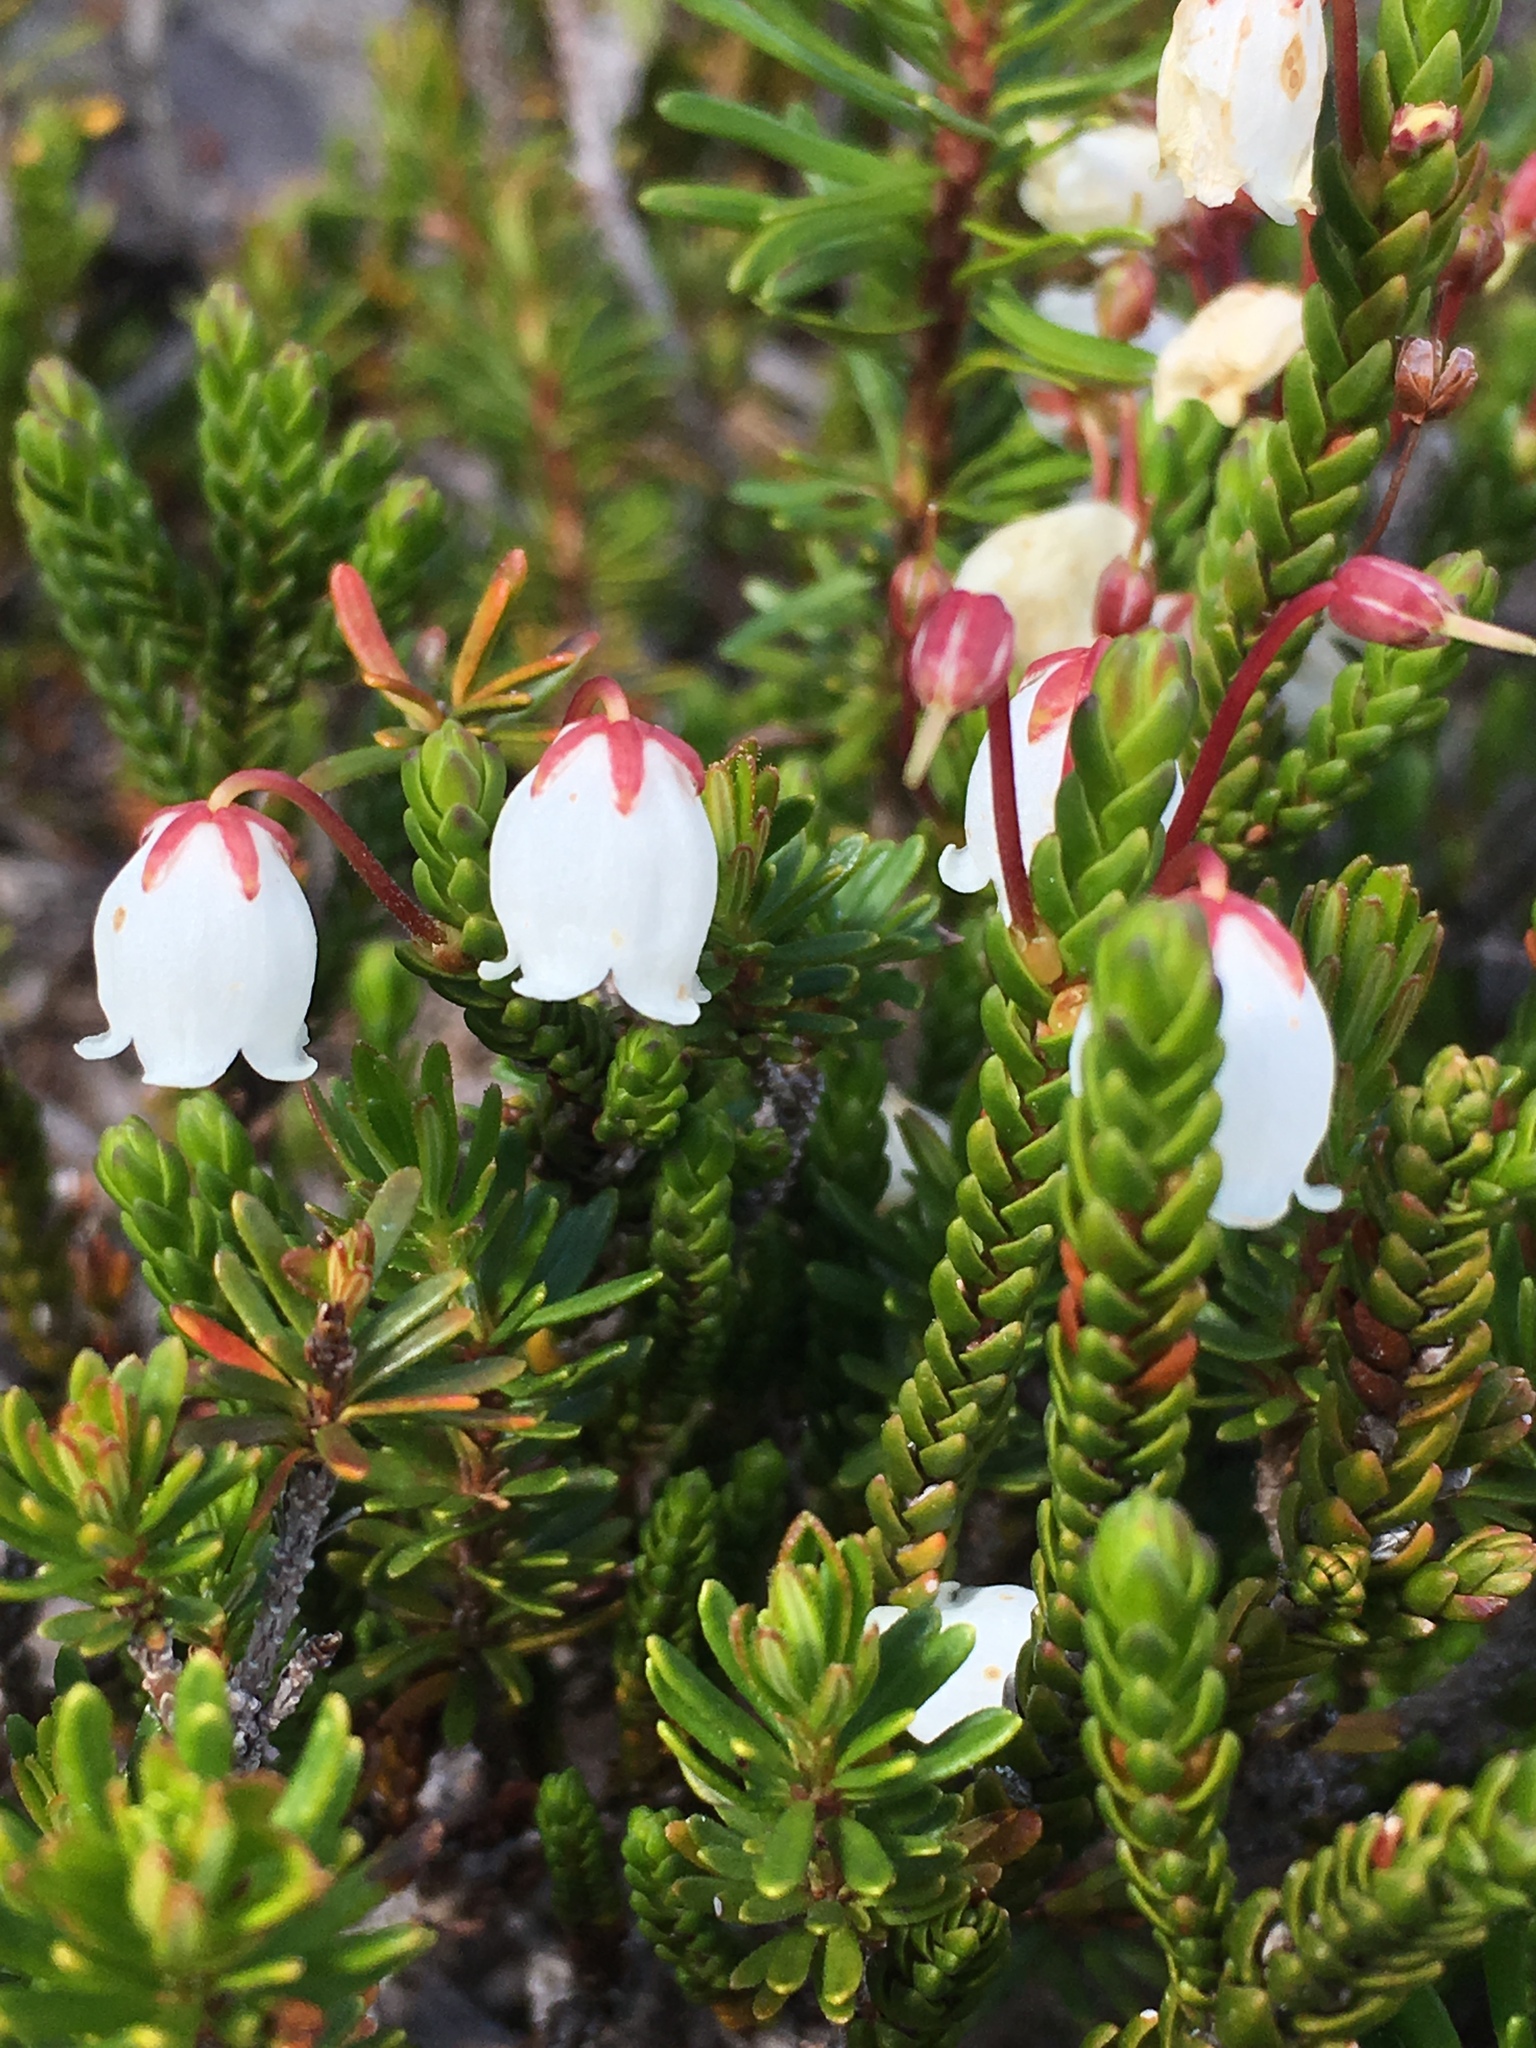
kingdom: Plantae
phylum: Tracheophyta
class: Magnoliopsida
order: Ericales
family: Ericaceae
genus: Cassiope
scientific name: Cassiope mertensiana
